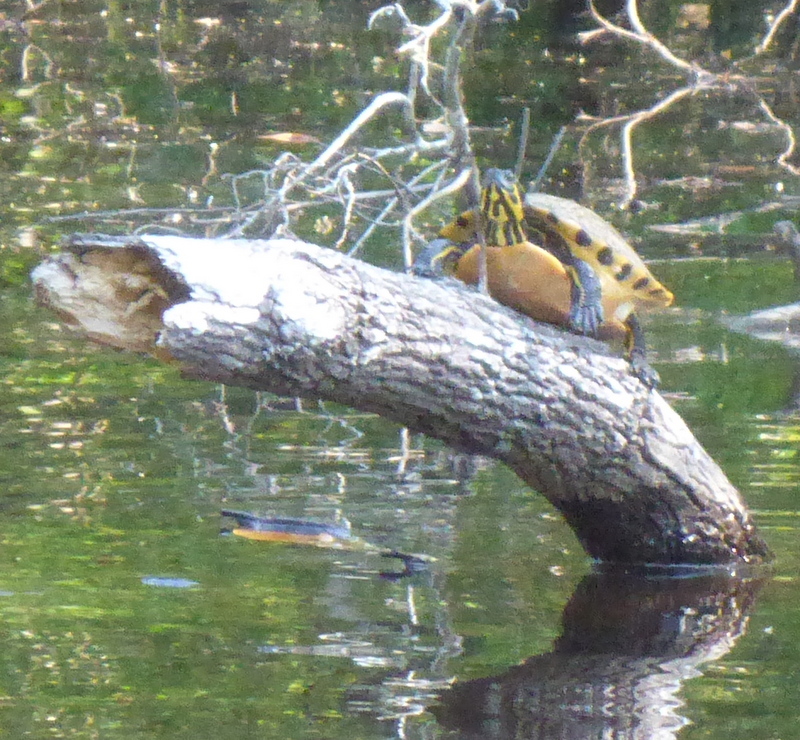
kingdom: Animalia
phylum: Chordata
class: Testudines
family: Emydidae
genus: Pseudemys
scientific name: Pseudemys concinna
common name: Eastern river cooter
